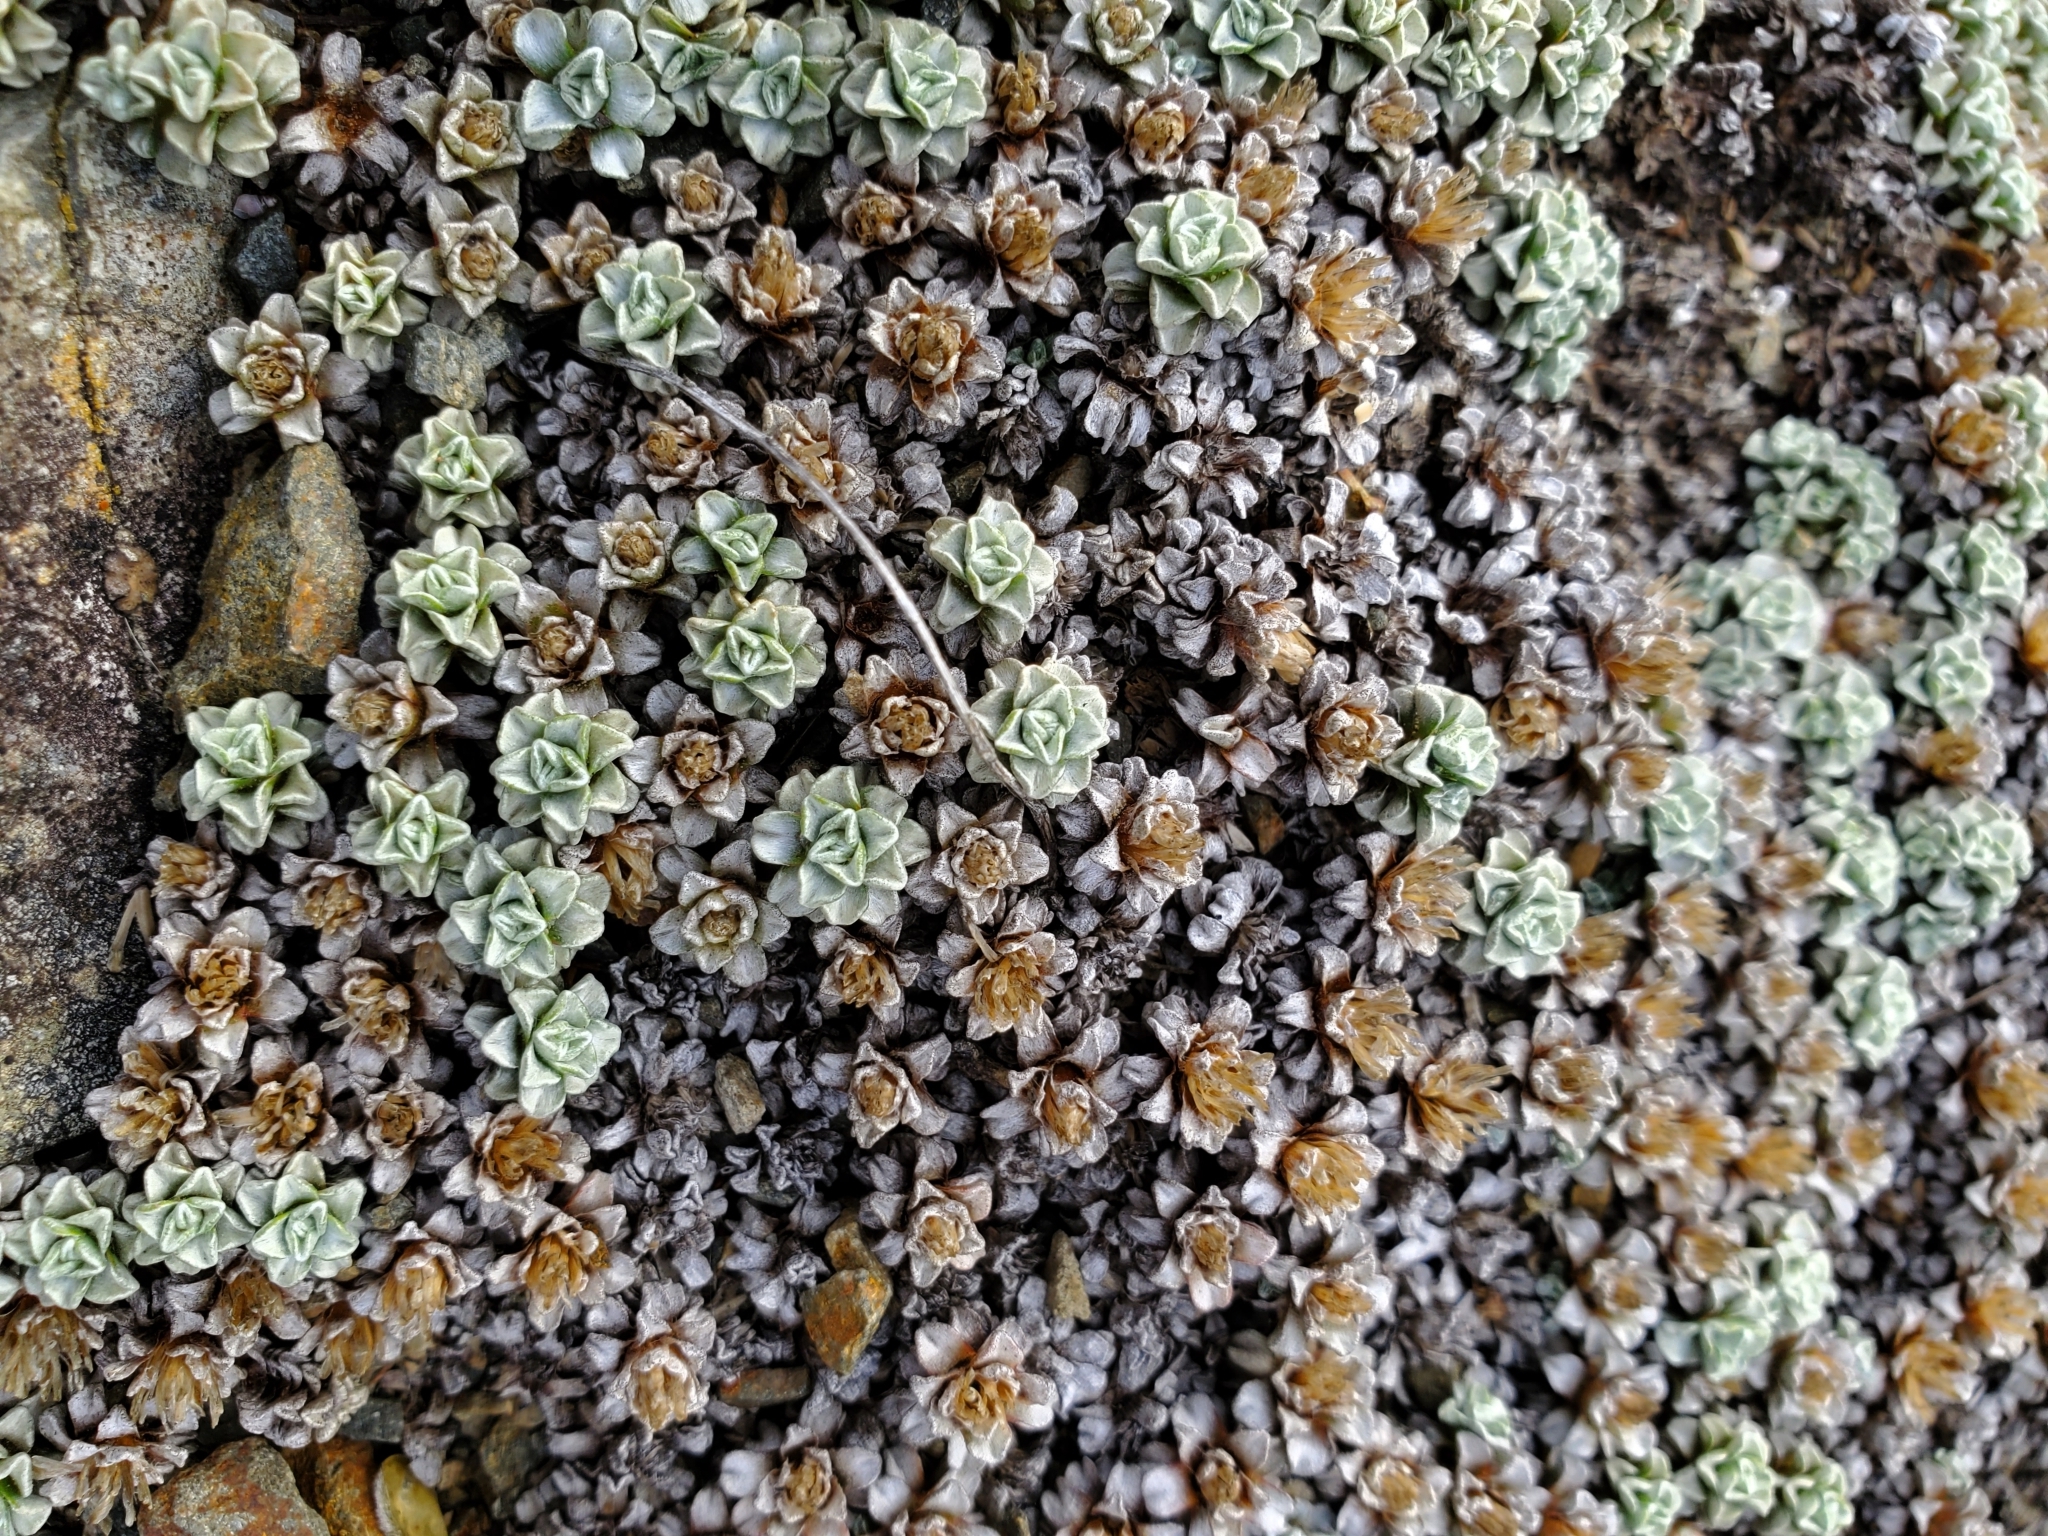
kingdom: Plantae
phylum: Tracheophyta
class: Magnoliopsida
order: Asterales
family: Asteraceae
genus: Raoulia
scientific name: Raoulia hookeri
